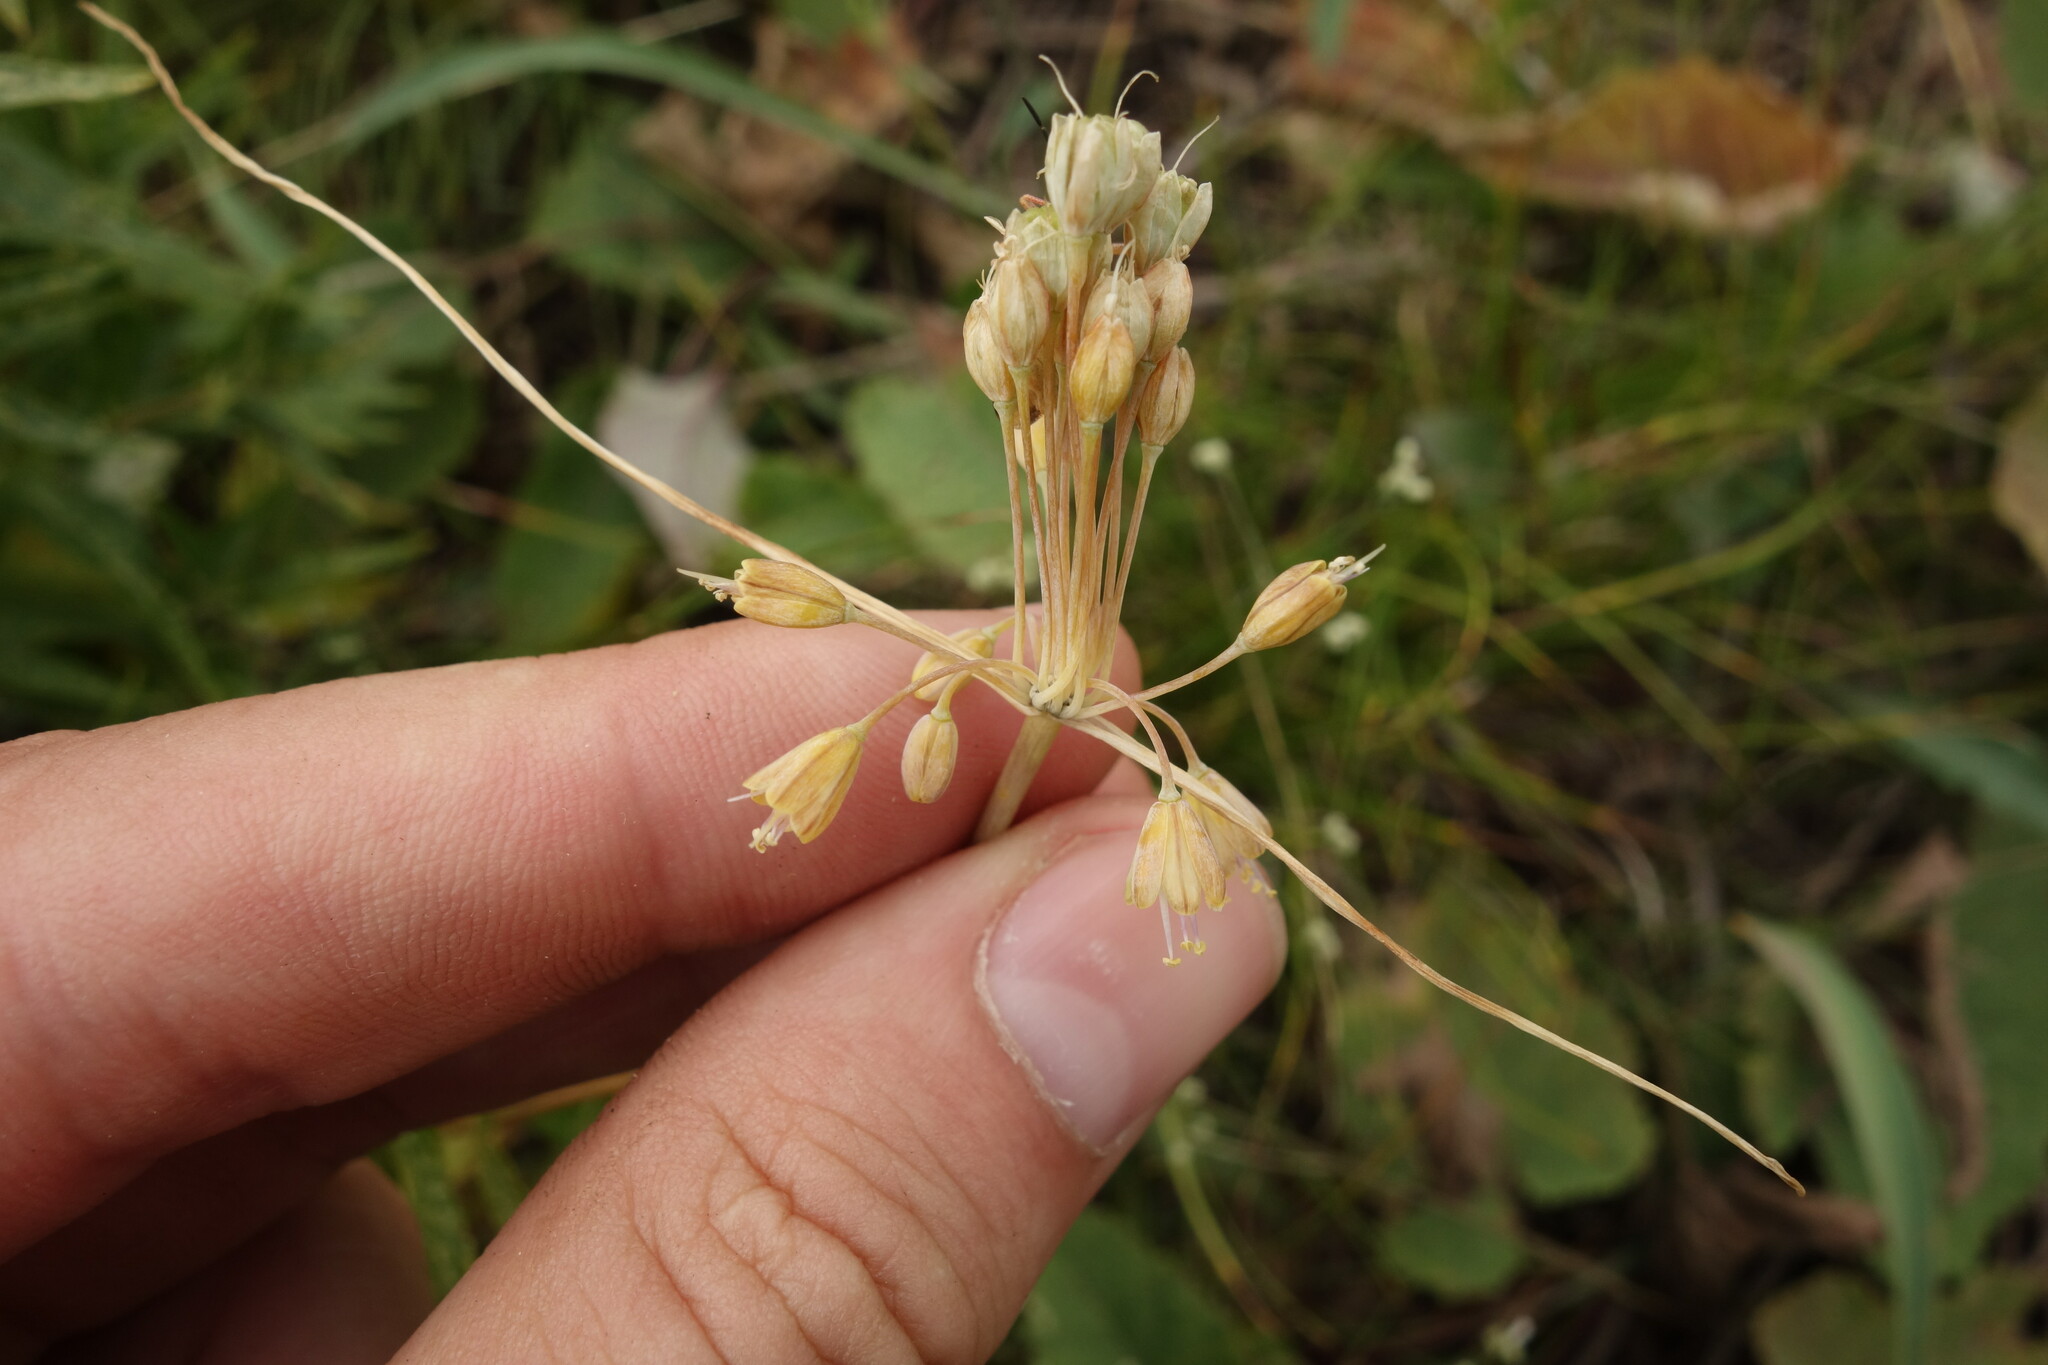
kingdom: Plantae
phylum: Tracheophyta
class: Liliopsida
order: Asparagales
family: Amaryllidaceae
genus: Allium
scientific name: Allium flavum
